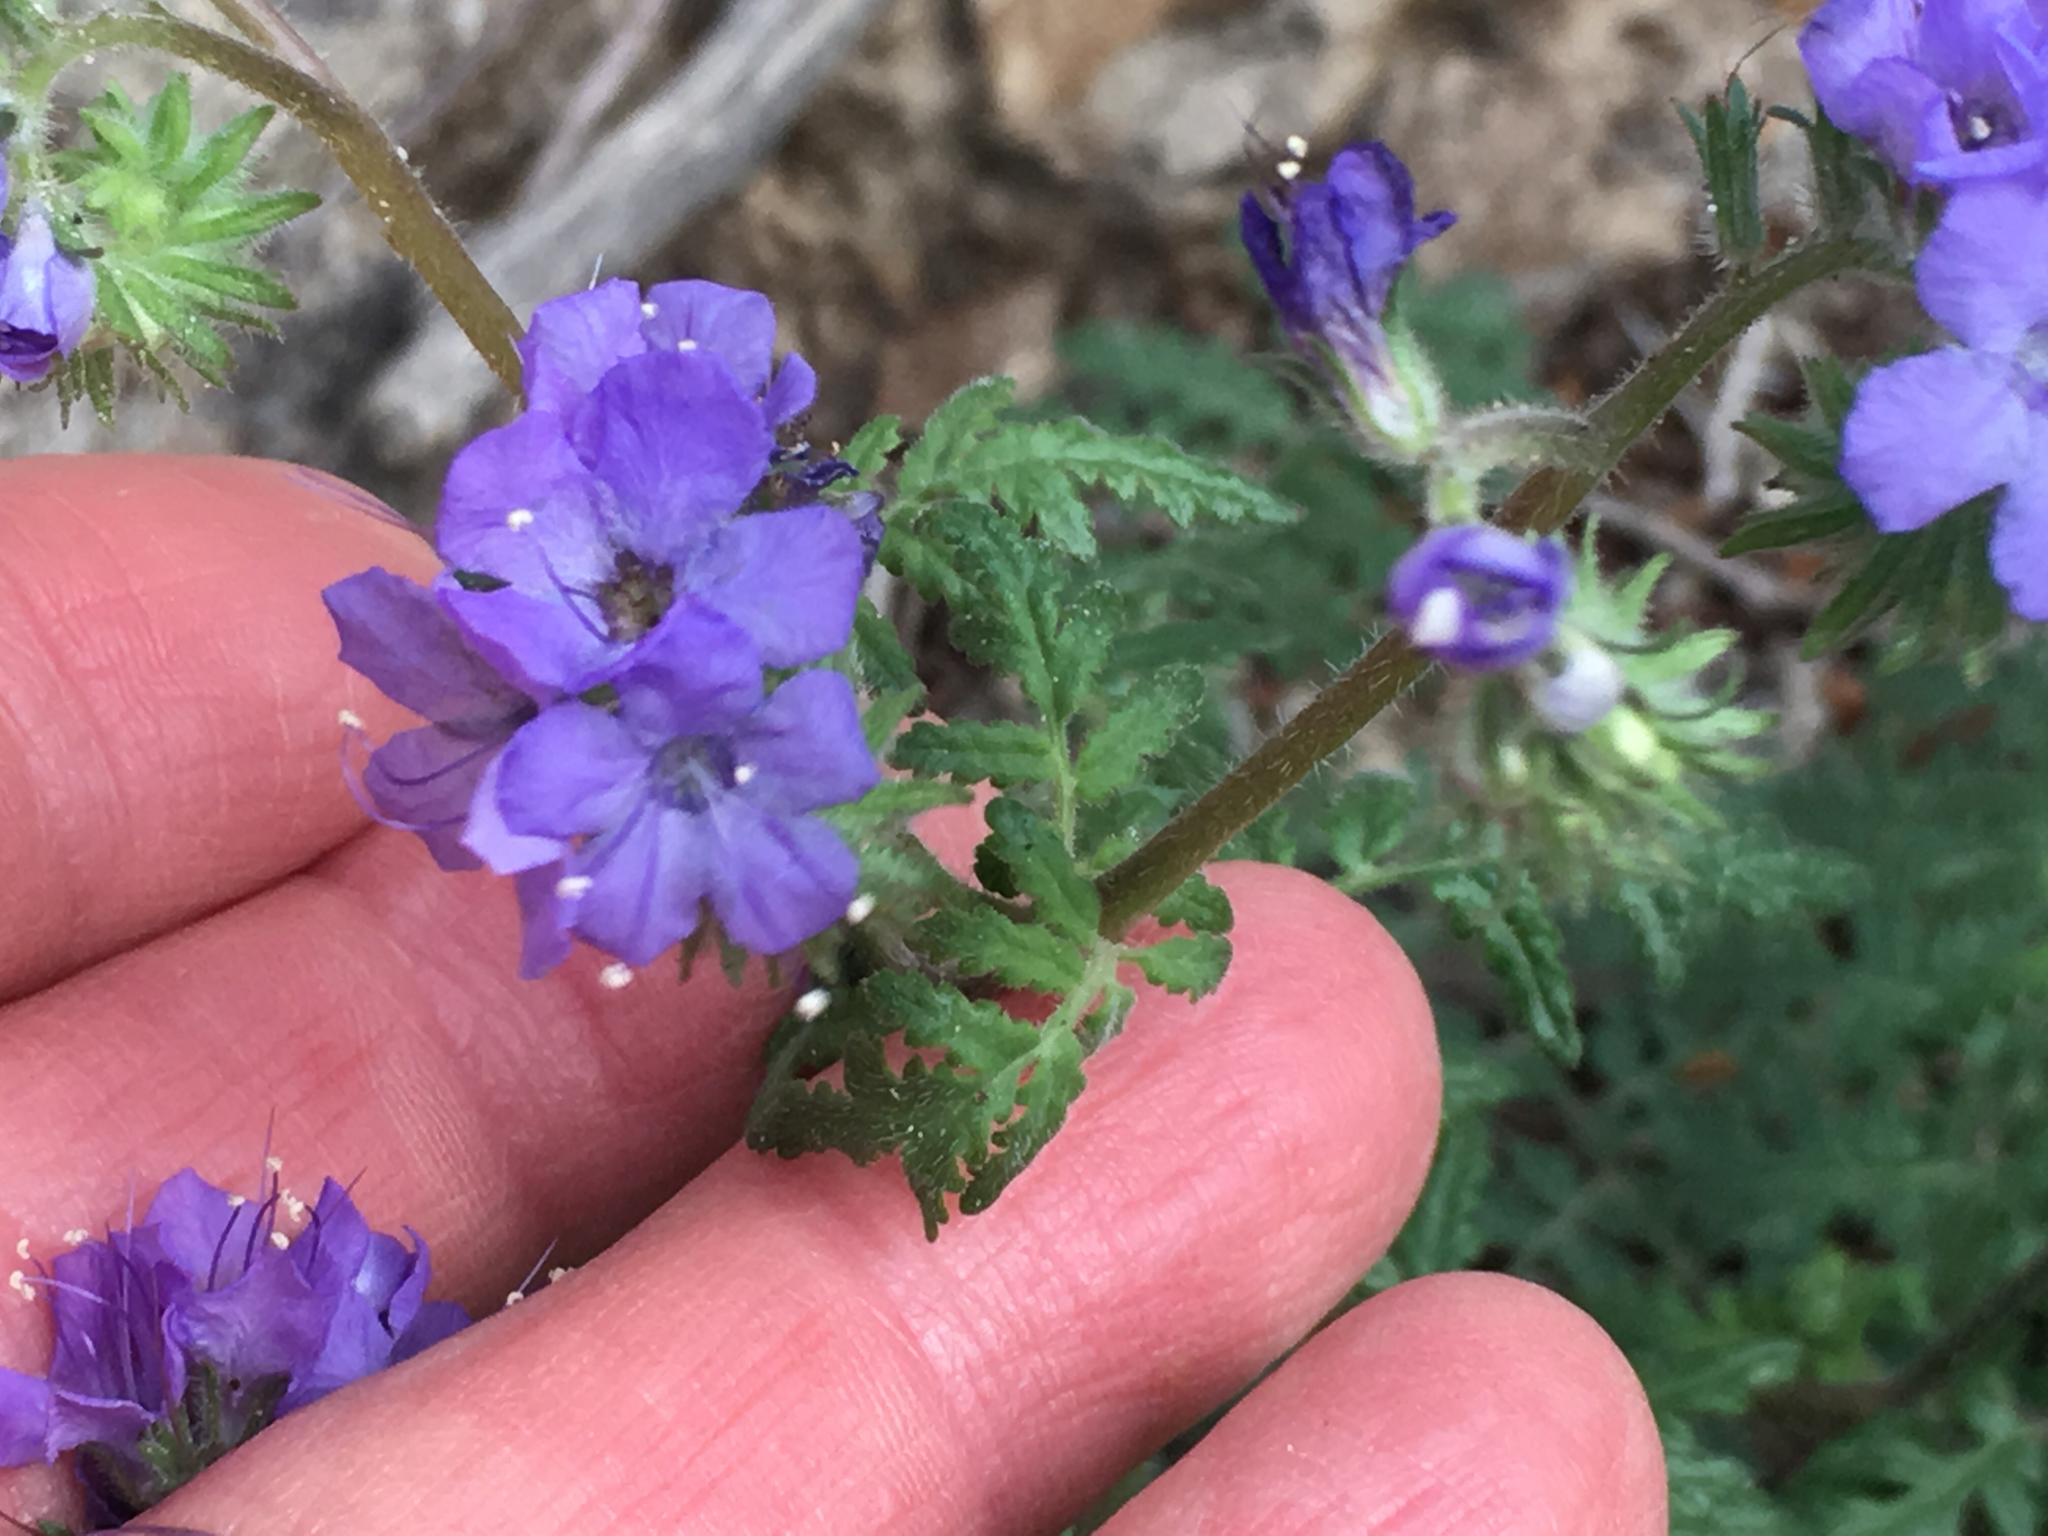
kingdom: Plantae
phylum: Tracheophyta
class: Magnoliopsida
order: Boraginales
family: Hydrophyllaceae
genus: Phacelia
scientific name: Phacelia distans
